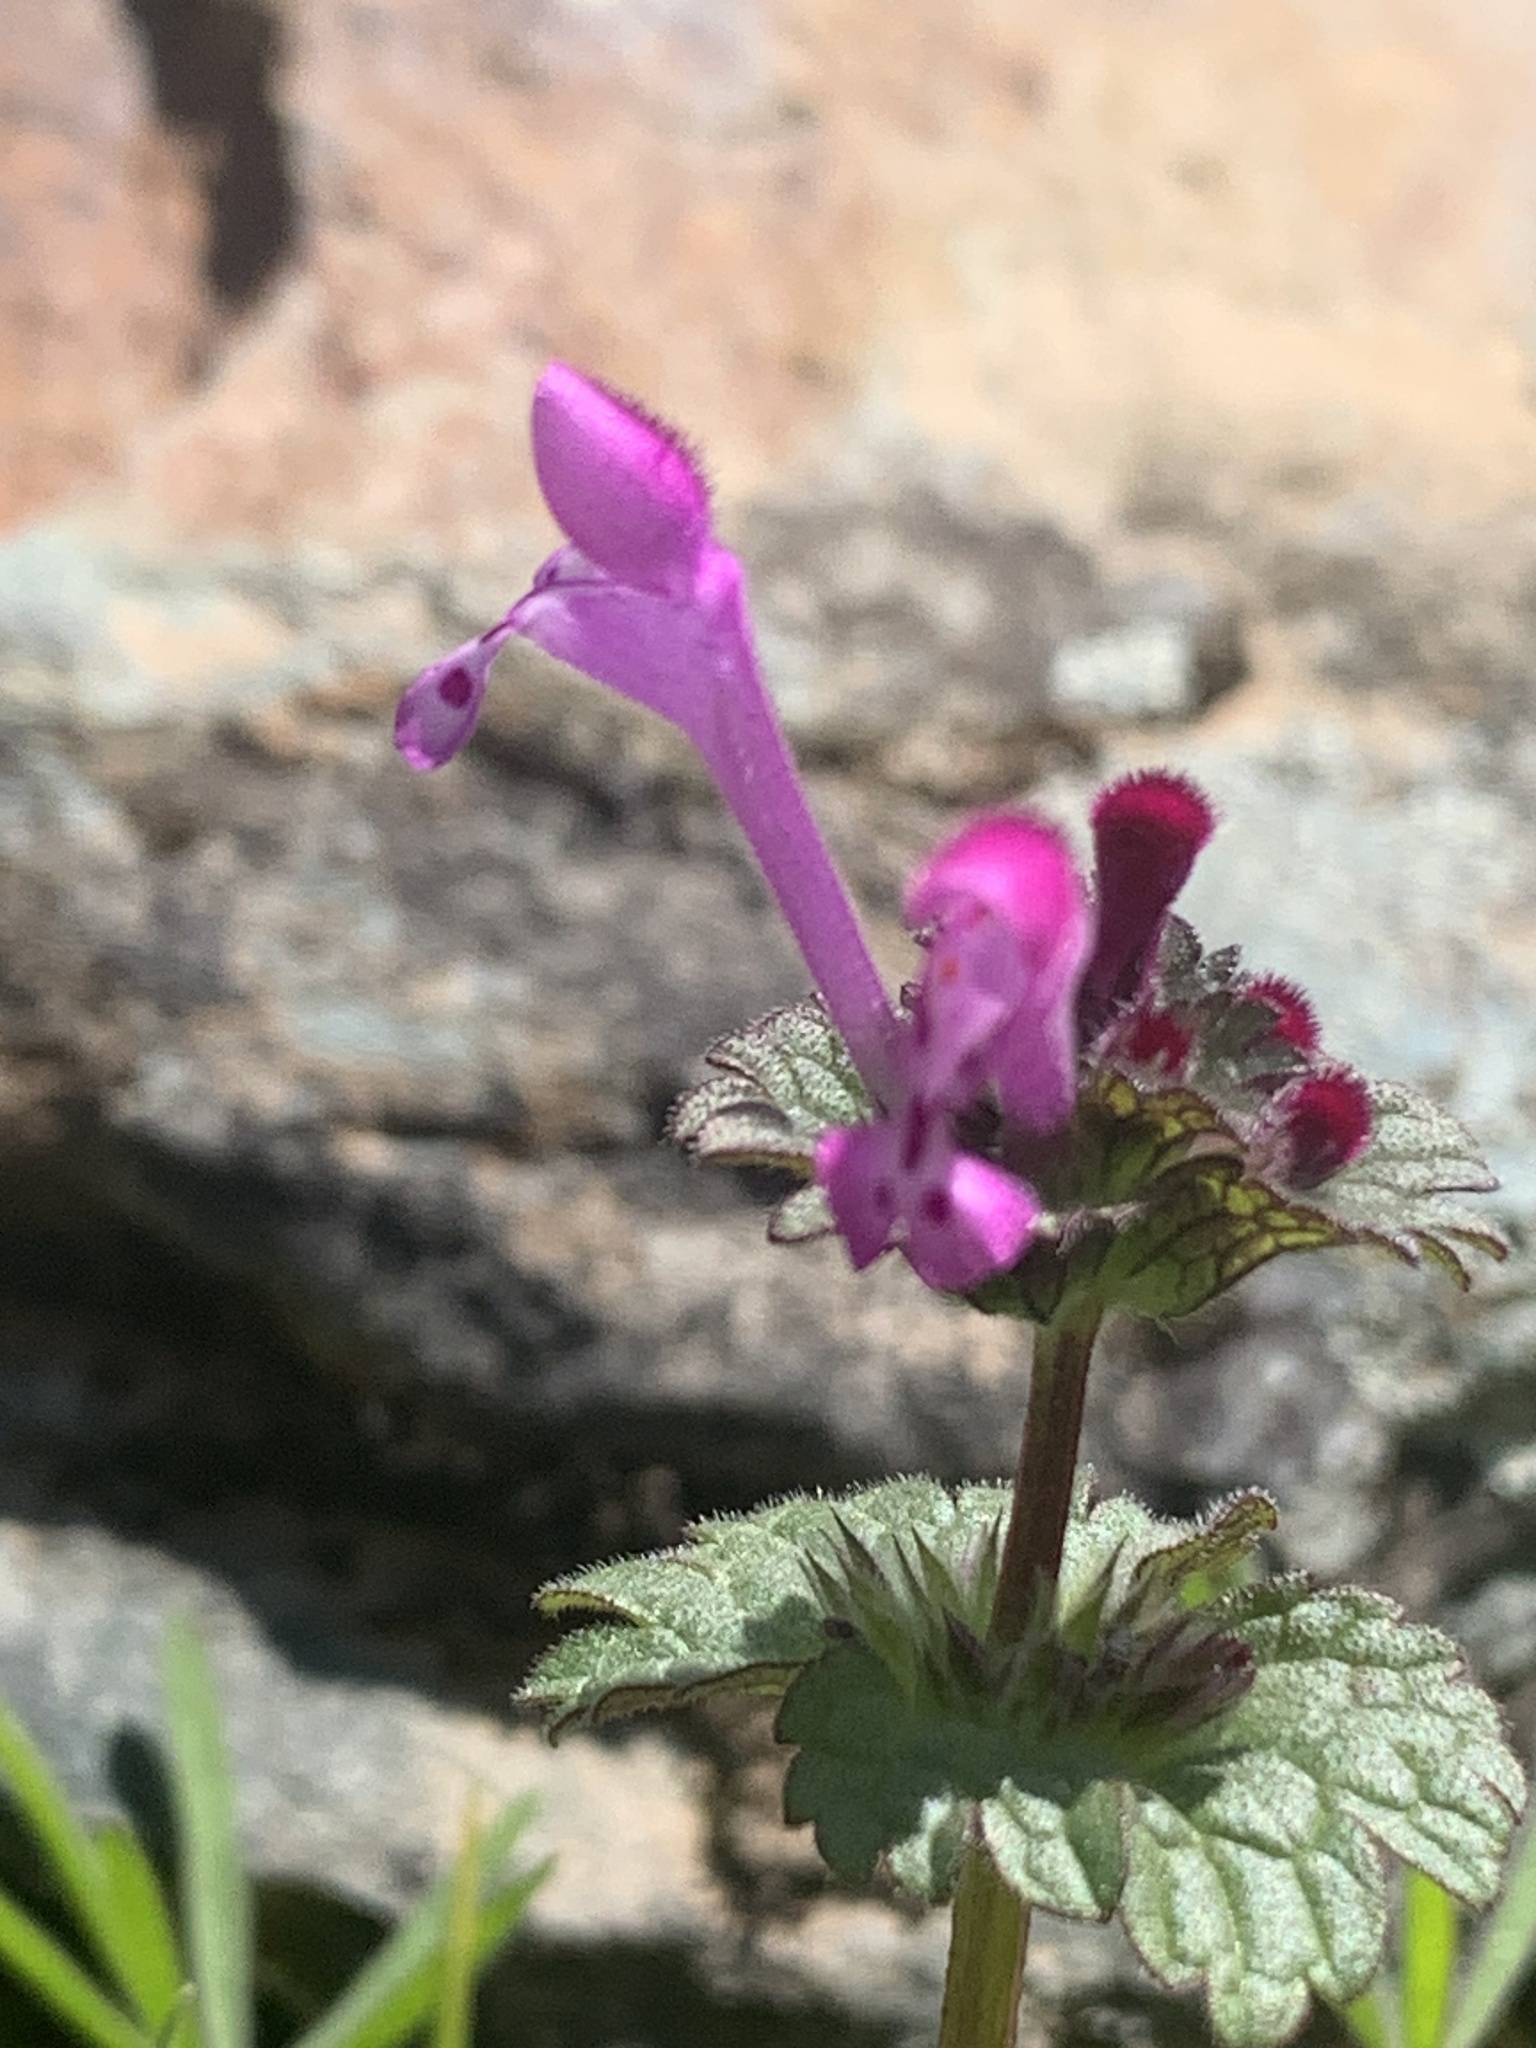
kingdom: Plantae
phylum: Tracheophyta
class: Magnoliopsida
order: Lamiales
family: Lamiaceae
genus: Lamium
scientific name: Lamium amplexicaule
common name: Henbit dead-nettle
